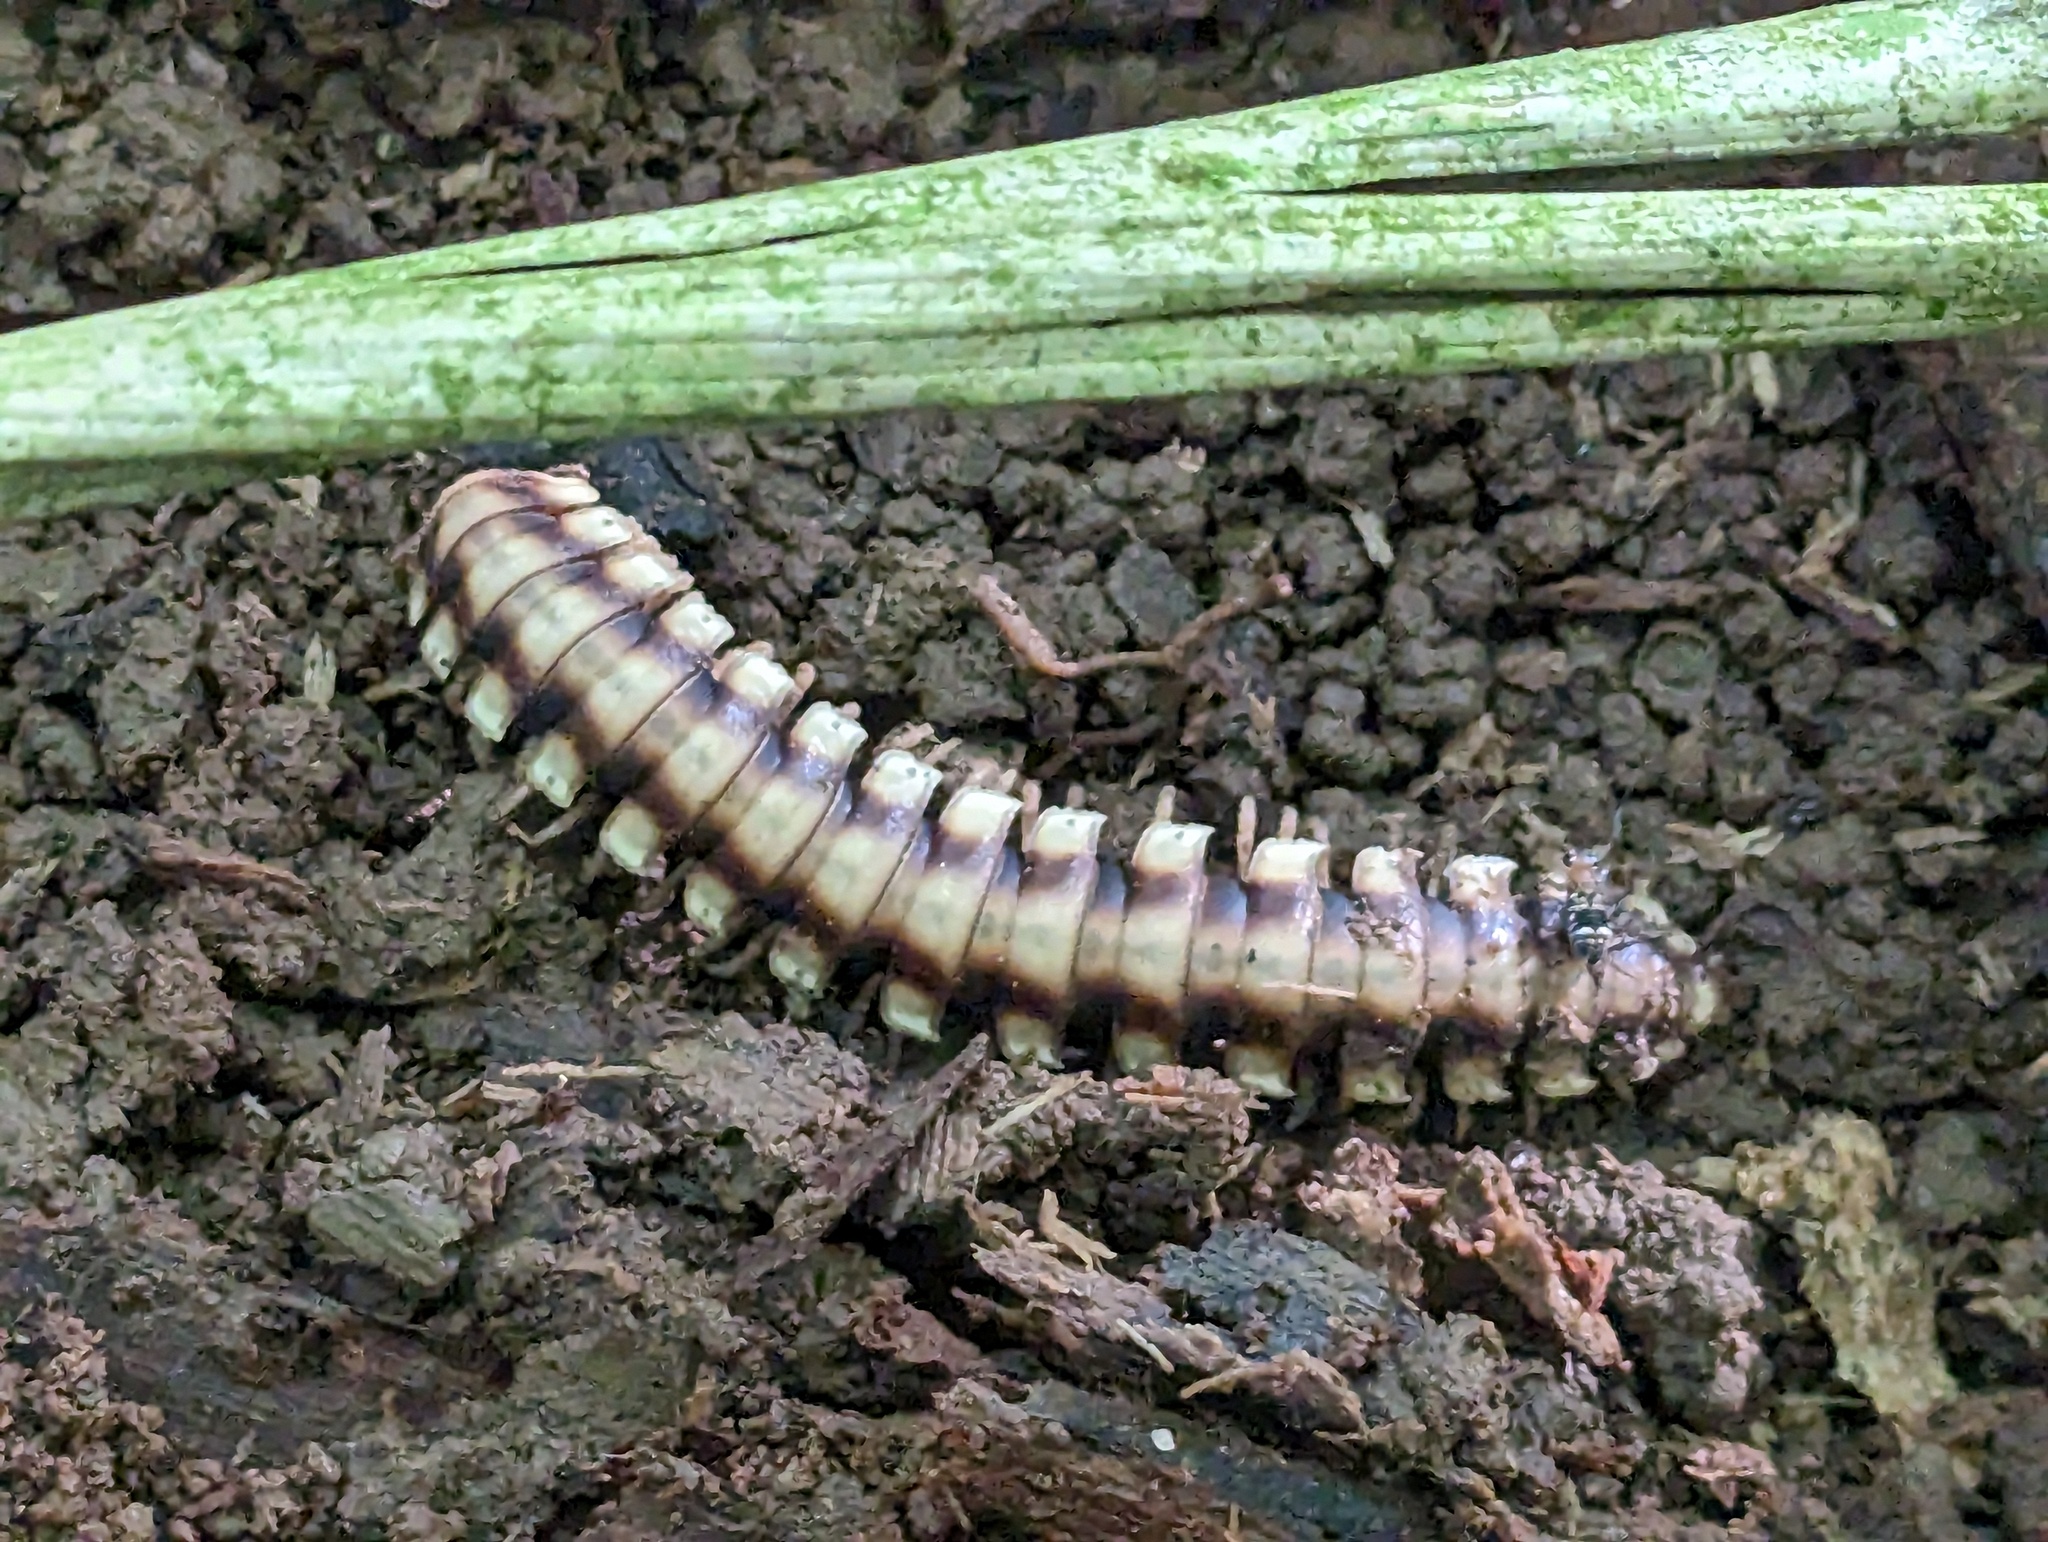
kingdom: Animalia
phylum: Arthropoda
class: Diplopoda
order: Polydesmida
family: Platyrhacidae
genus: Nyssodesmus
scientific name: Nyssodesmus python
